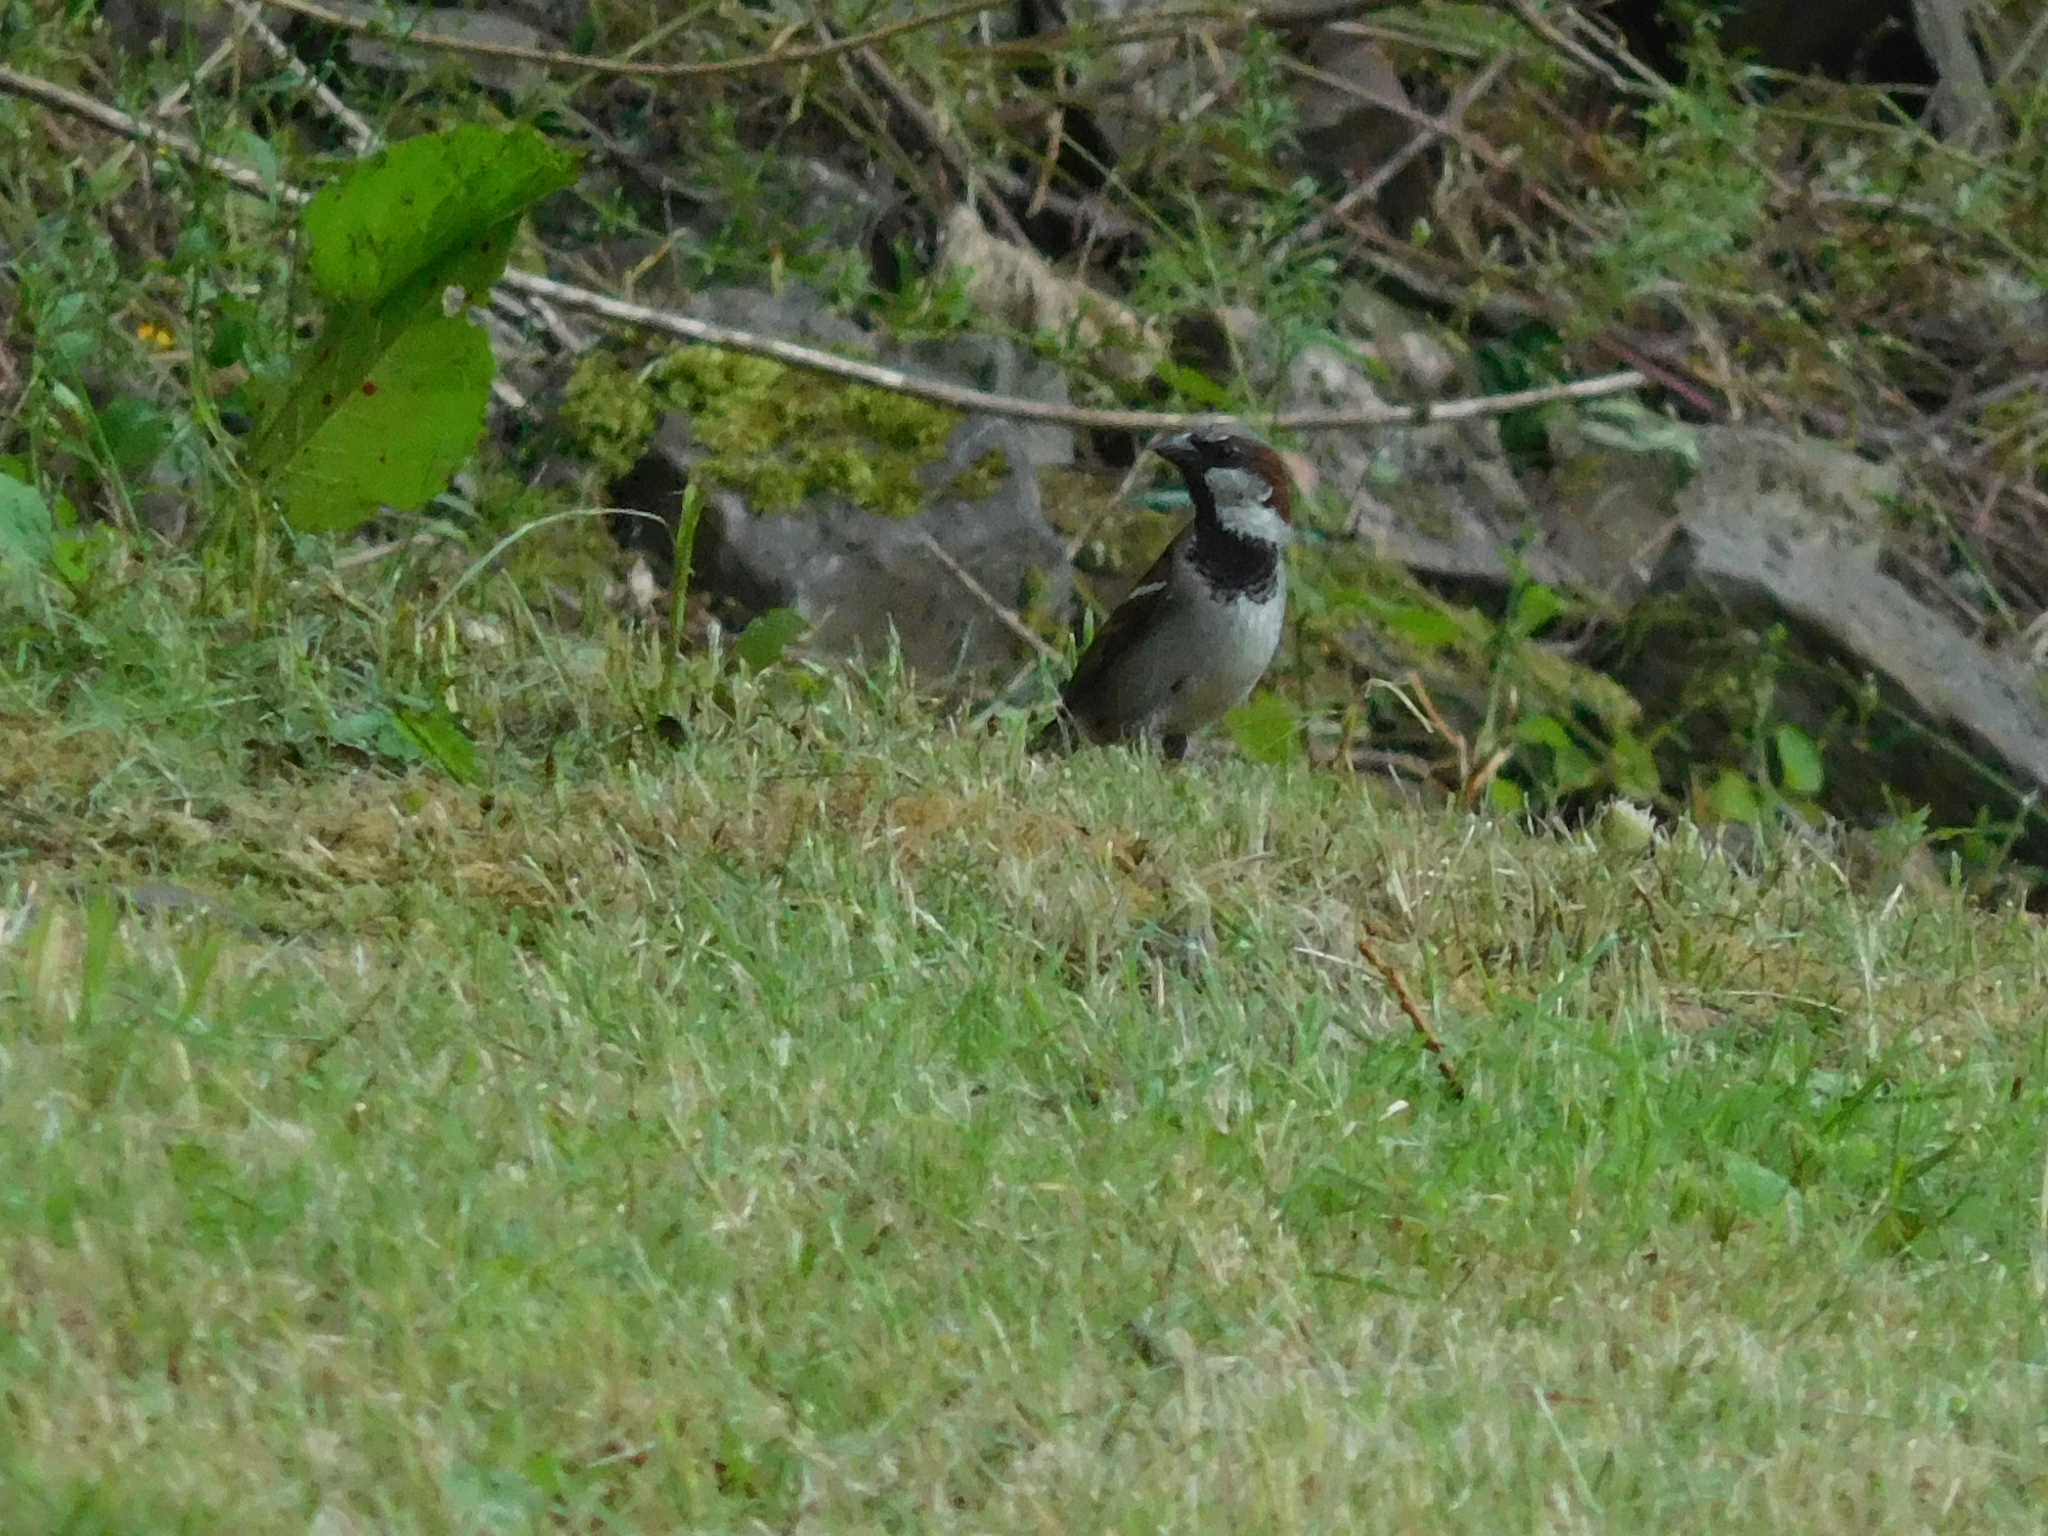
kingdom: Animalia
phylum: Chordata
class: Aves
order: Passeriformes
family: Passeridae
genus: Passer
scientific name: Passer domesticus
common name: House sparrow
